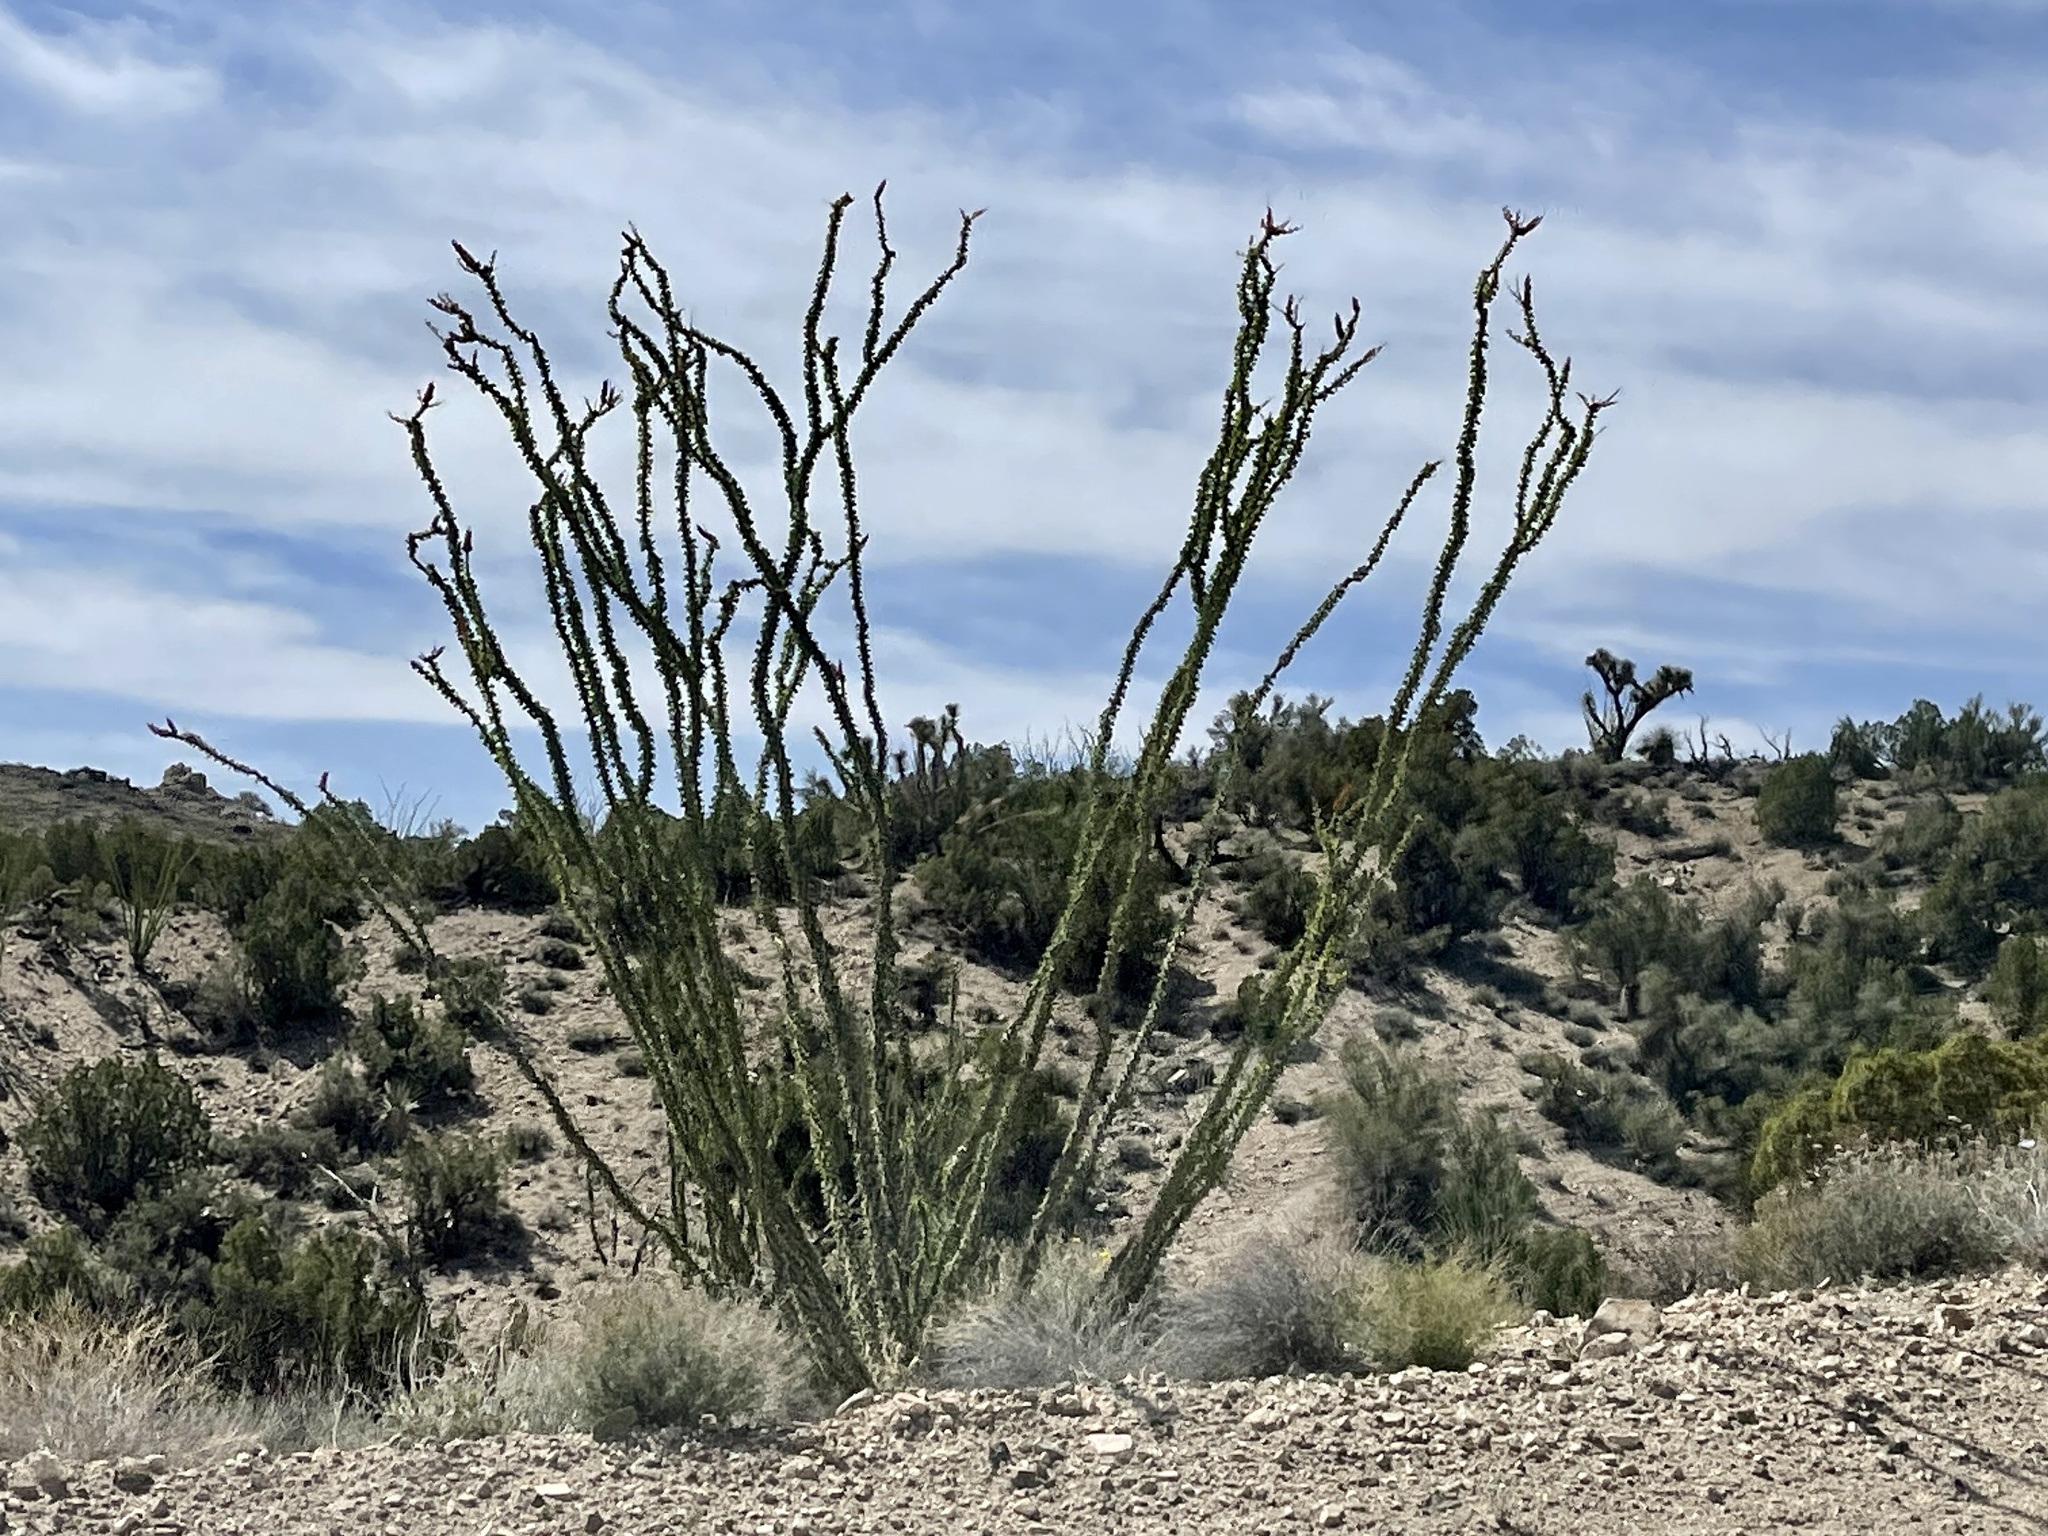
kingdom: Plantae
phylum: Tracheophyta
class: Magnoliopsida
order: Ericales
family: Fouquieriaceae
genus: Fouquieria
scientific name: Fouquieria splendens
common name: Vine-cactus
